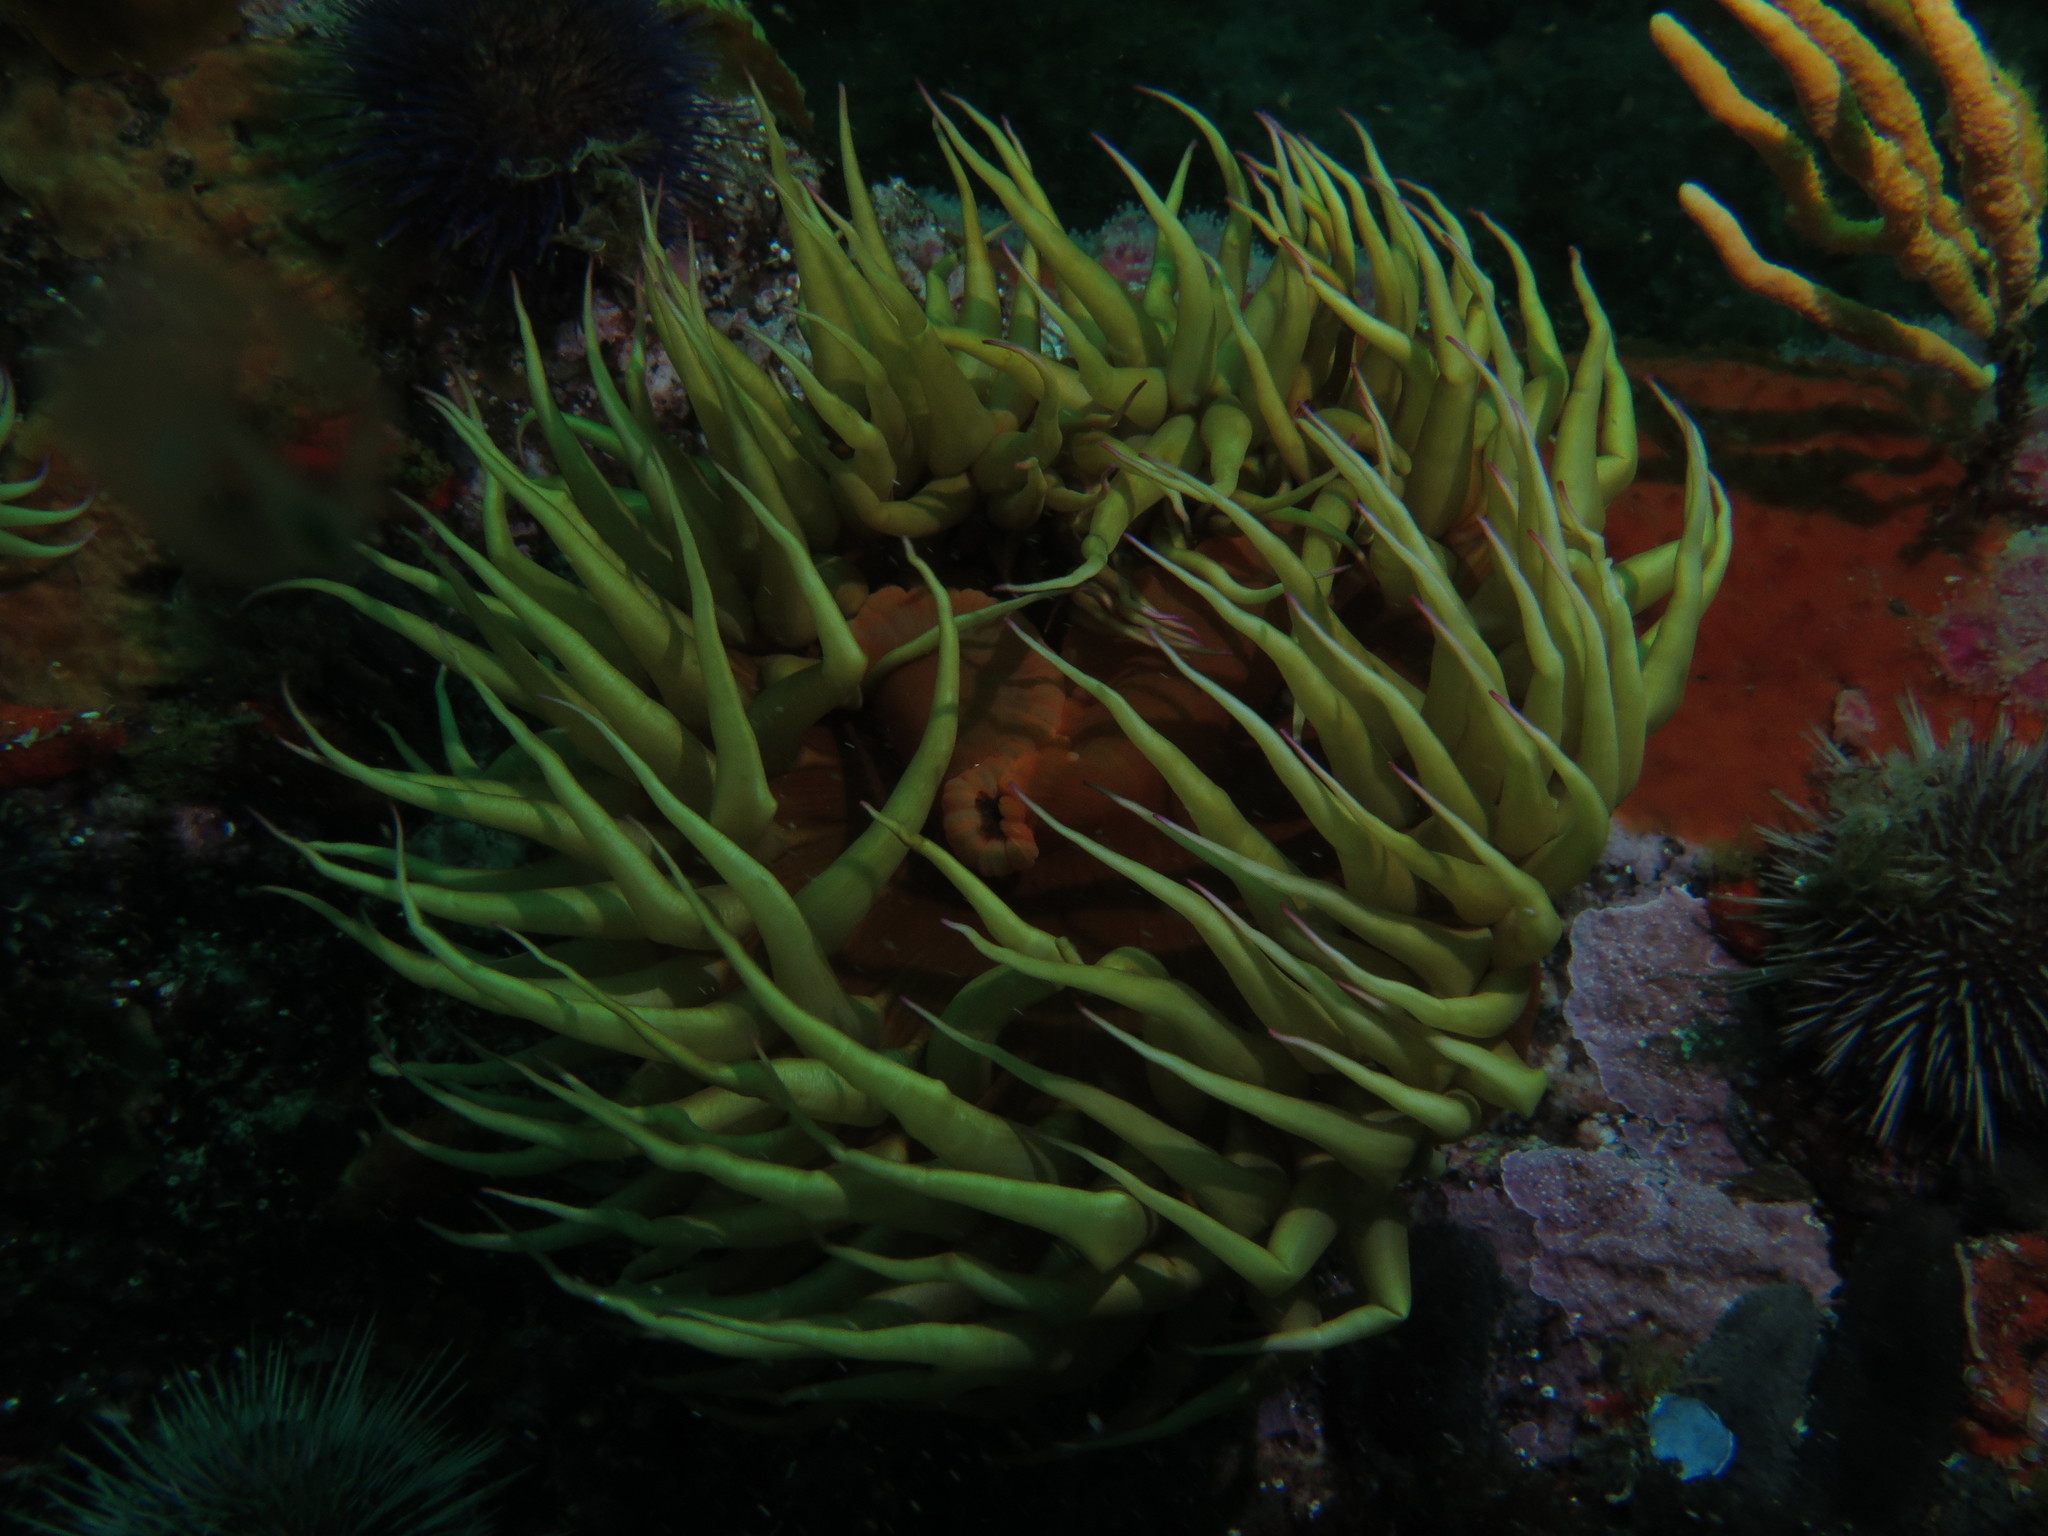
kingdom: Animalia
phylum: Cnidaria
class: Anthozoa
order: Actiniaria
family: Actiniidae
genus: Pseudactinia
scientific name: Pseudactinia flagellifera
